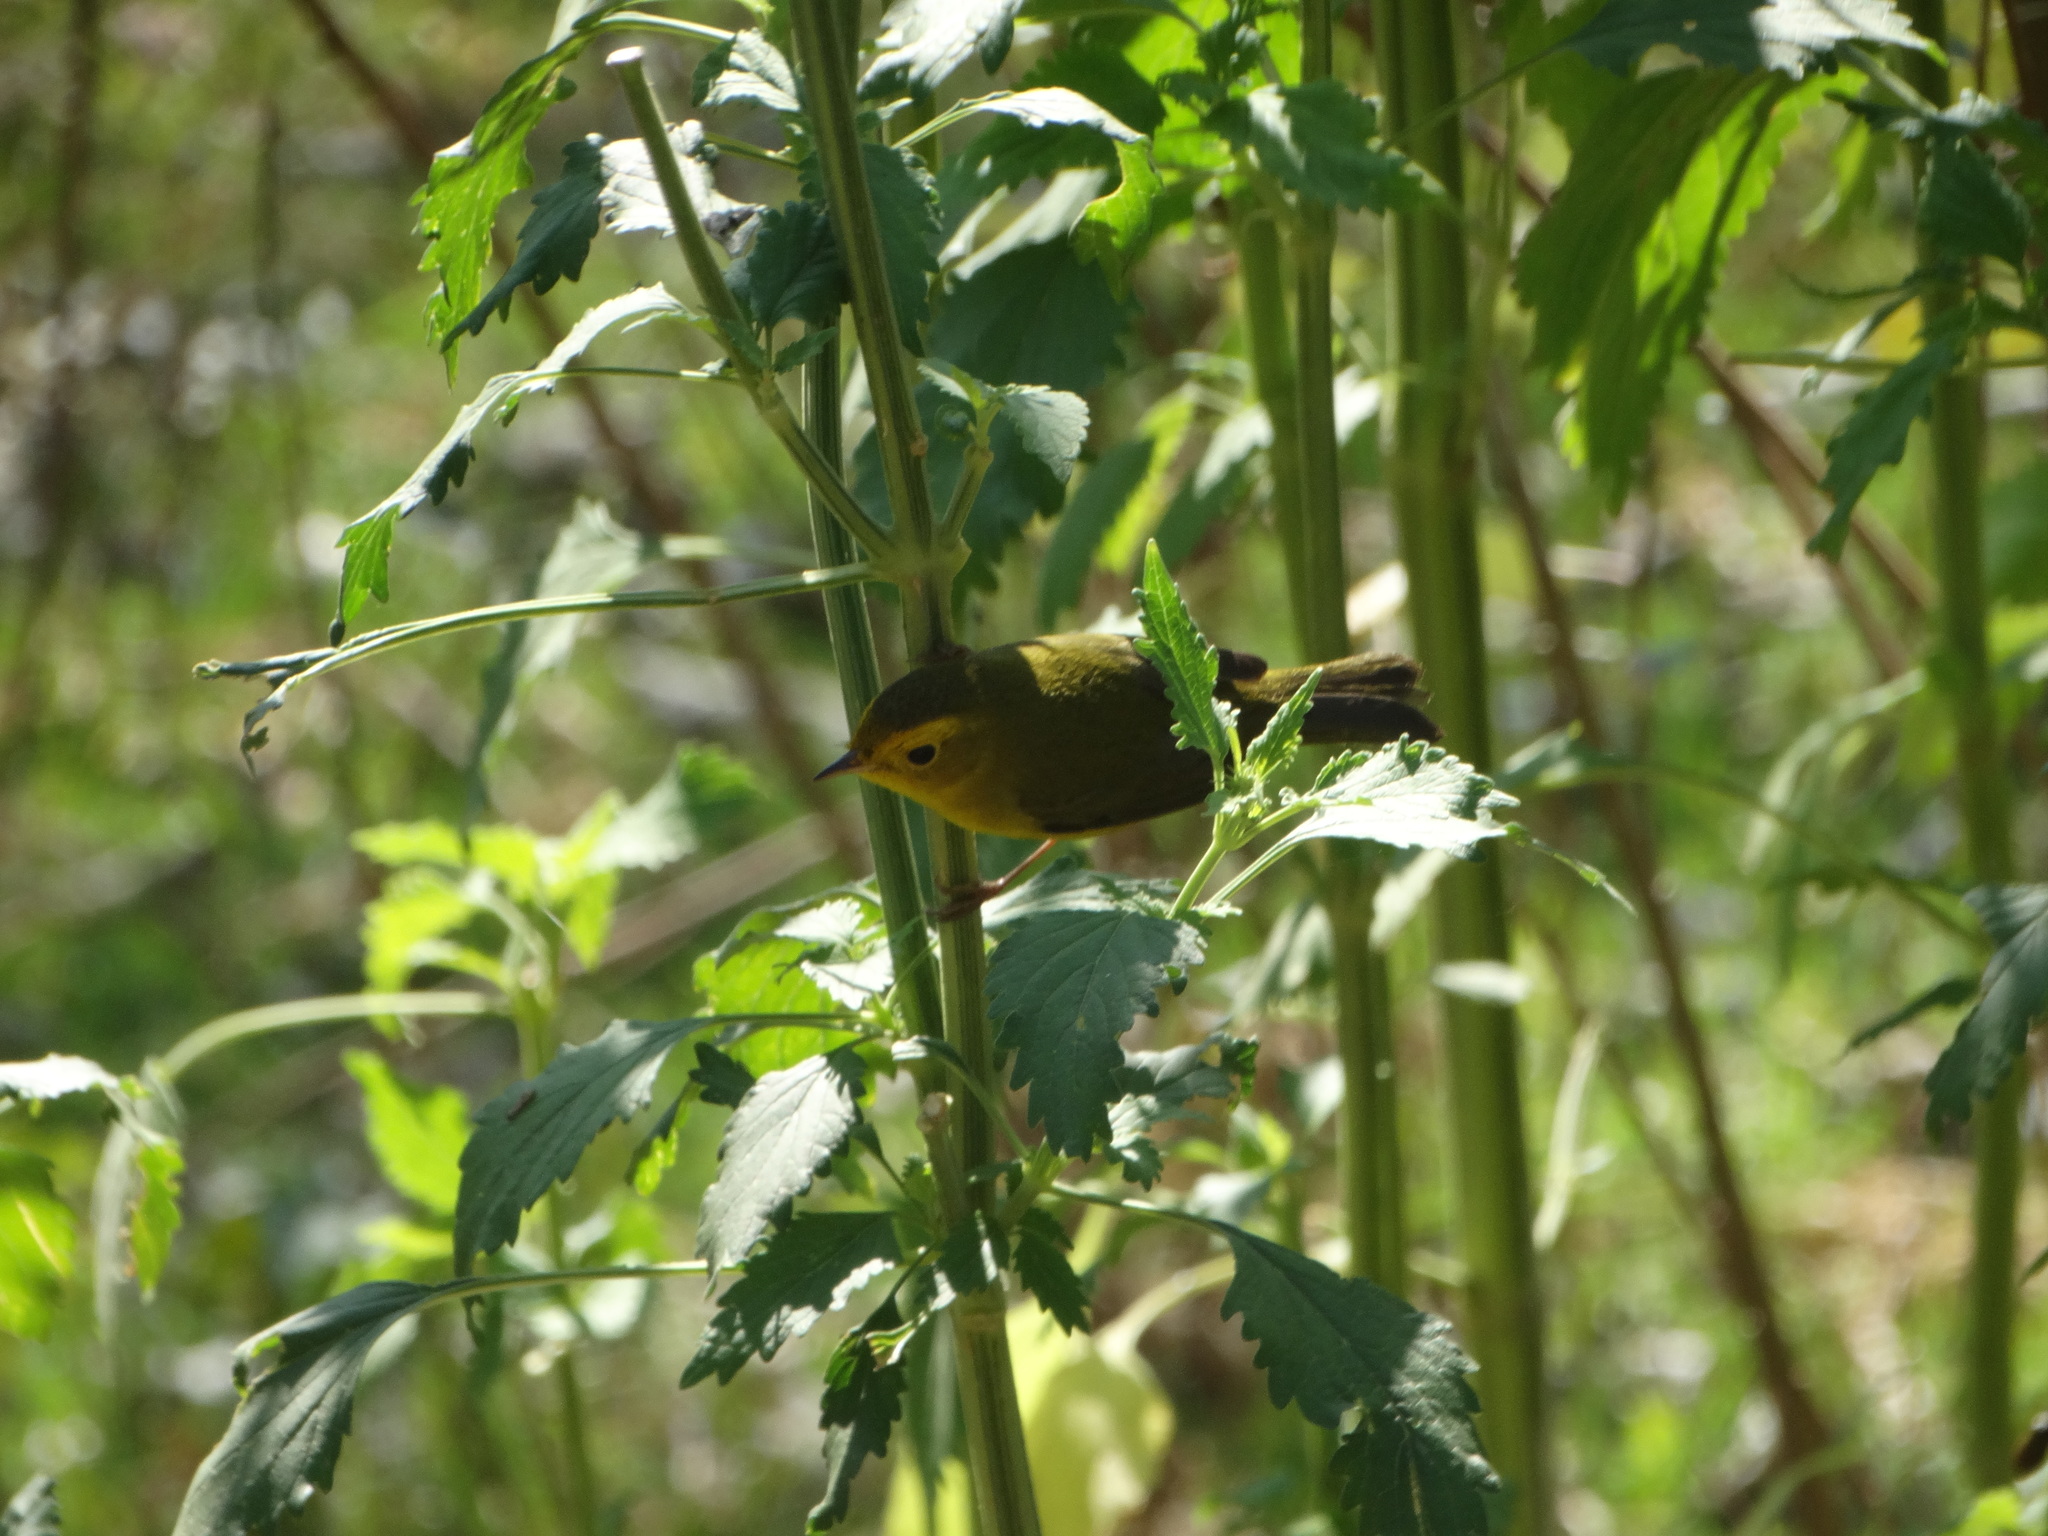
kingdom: Animalia
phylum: Chordata
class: Aves
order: Passeriformes
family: Parulidae
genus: Cardellina
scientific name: Cardellina pusilla
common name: Wilson's warbler
